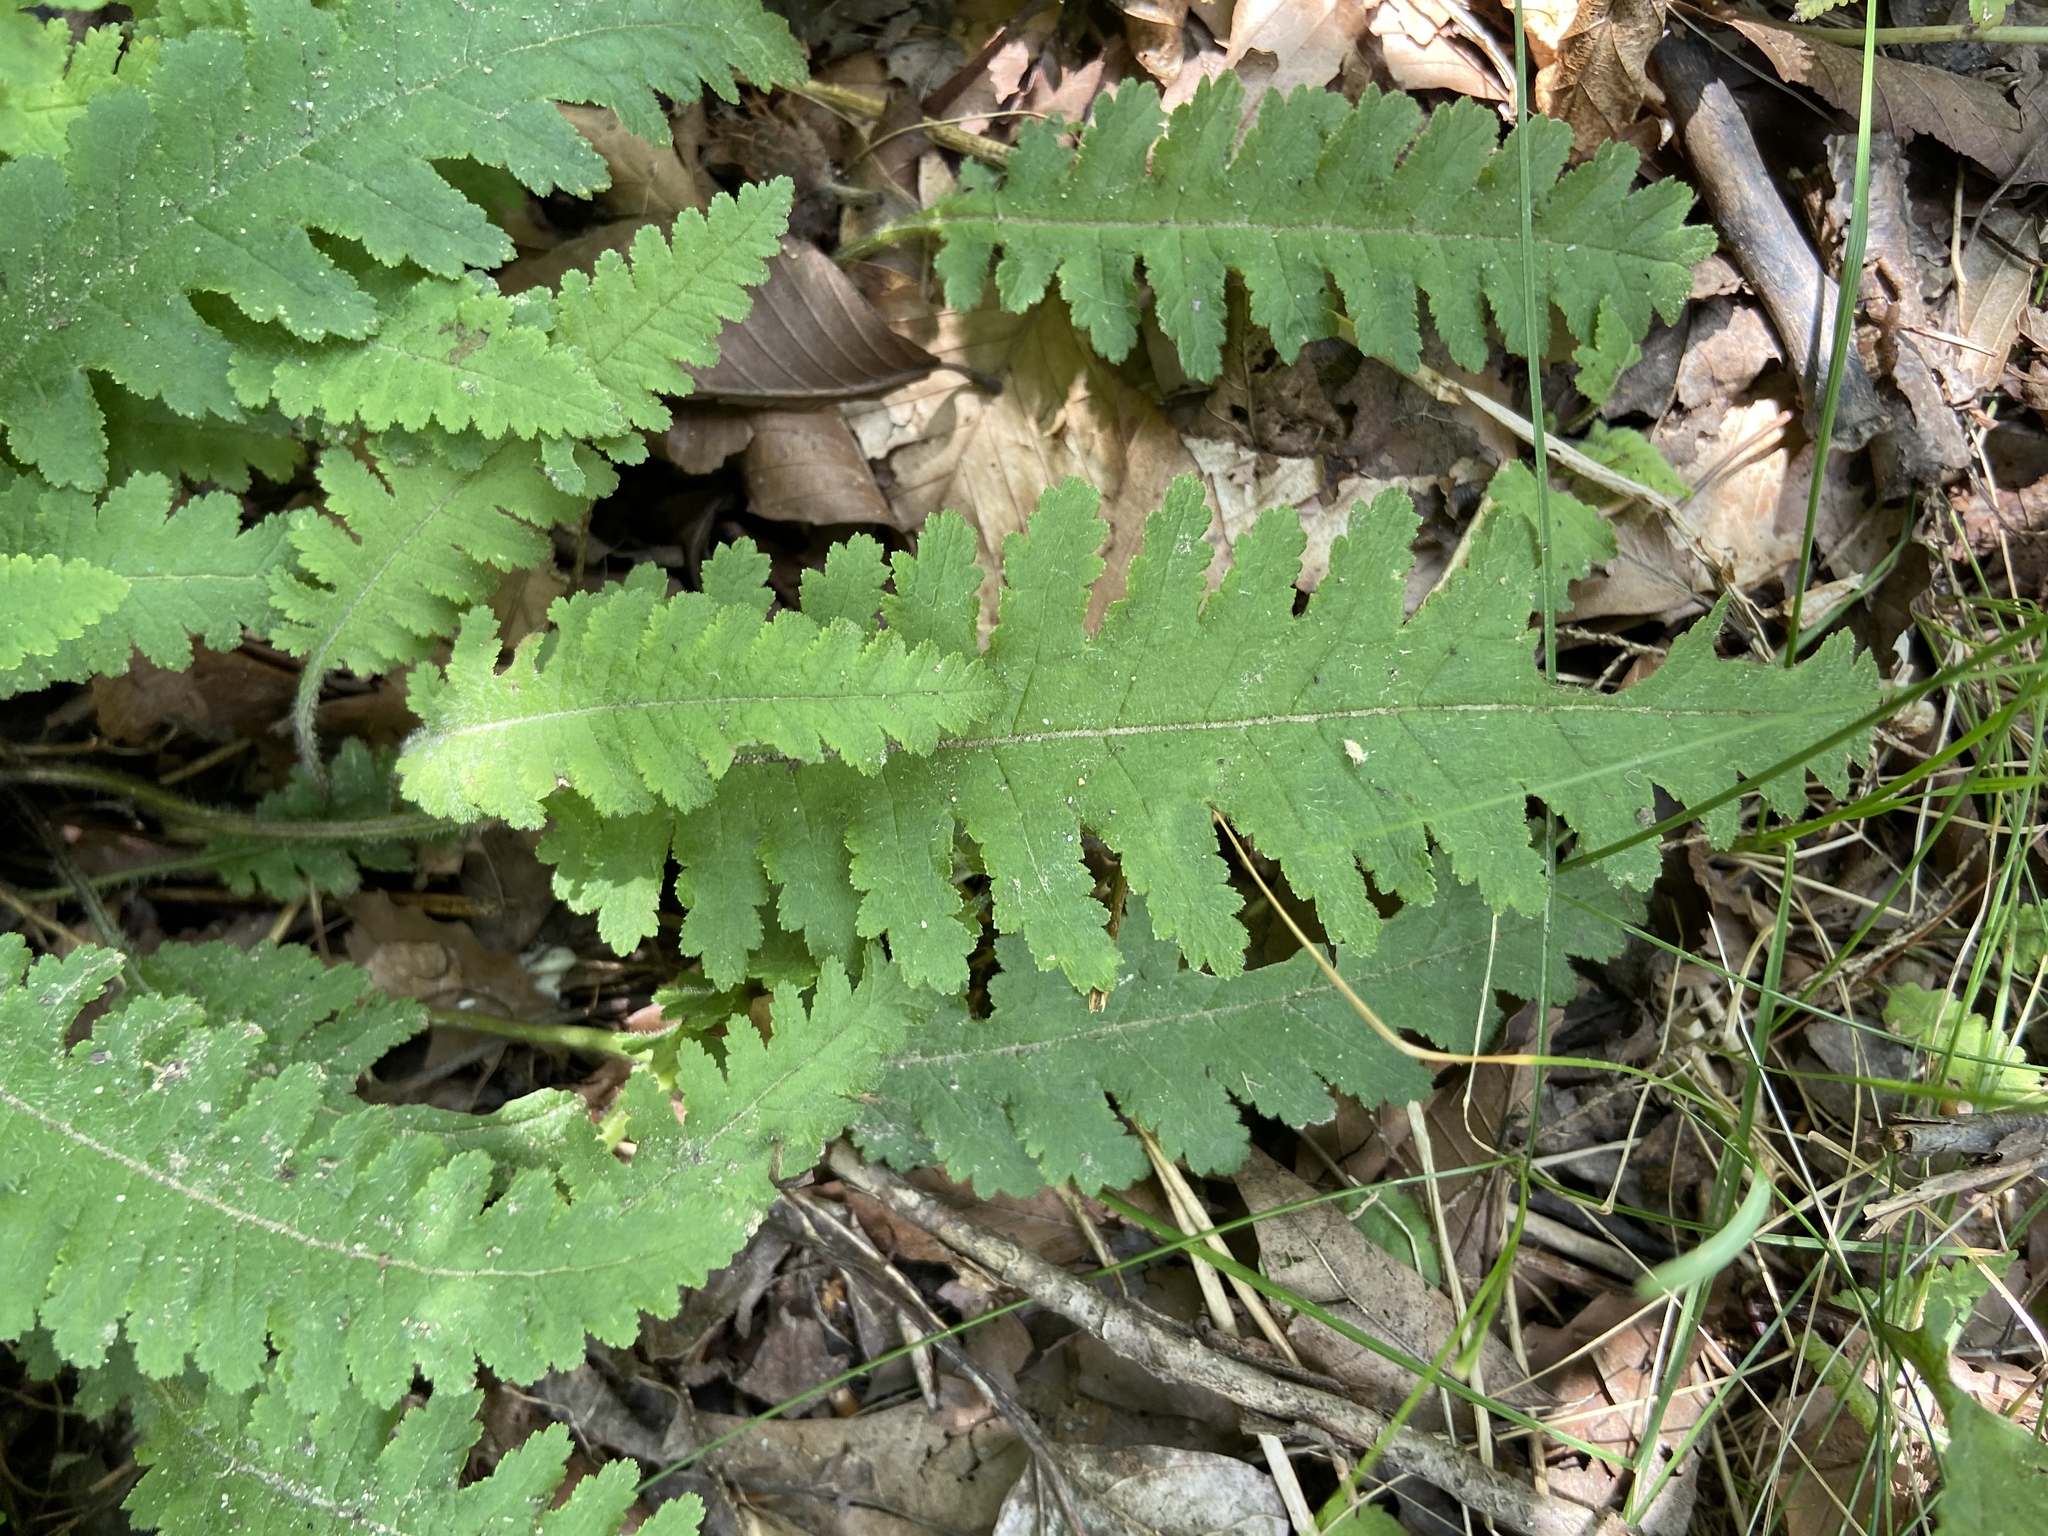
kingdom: Plantae
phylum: Tracheophyta
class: Magnoliopsida
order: Lamiales
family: Orobanchaceae
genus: Pedicularis
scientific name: Pedicularis canadensis
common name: Early lousewort
